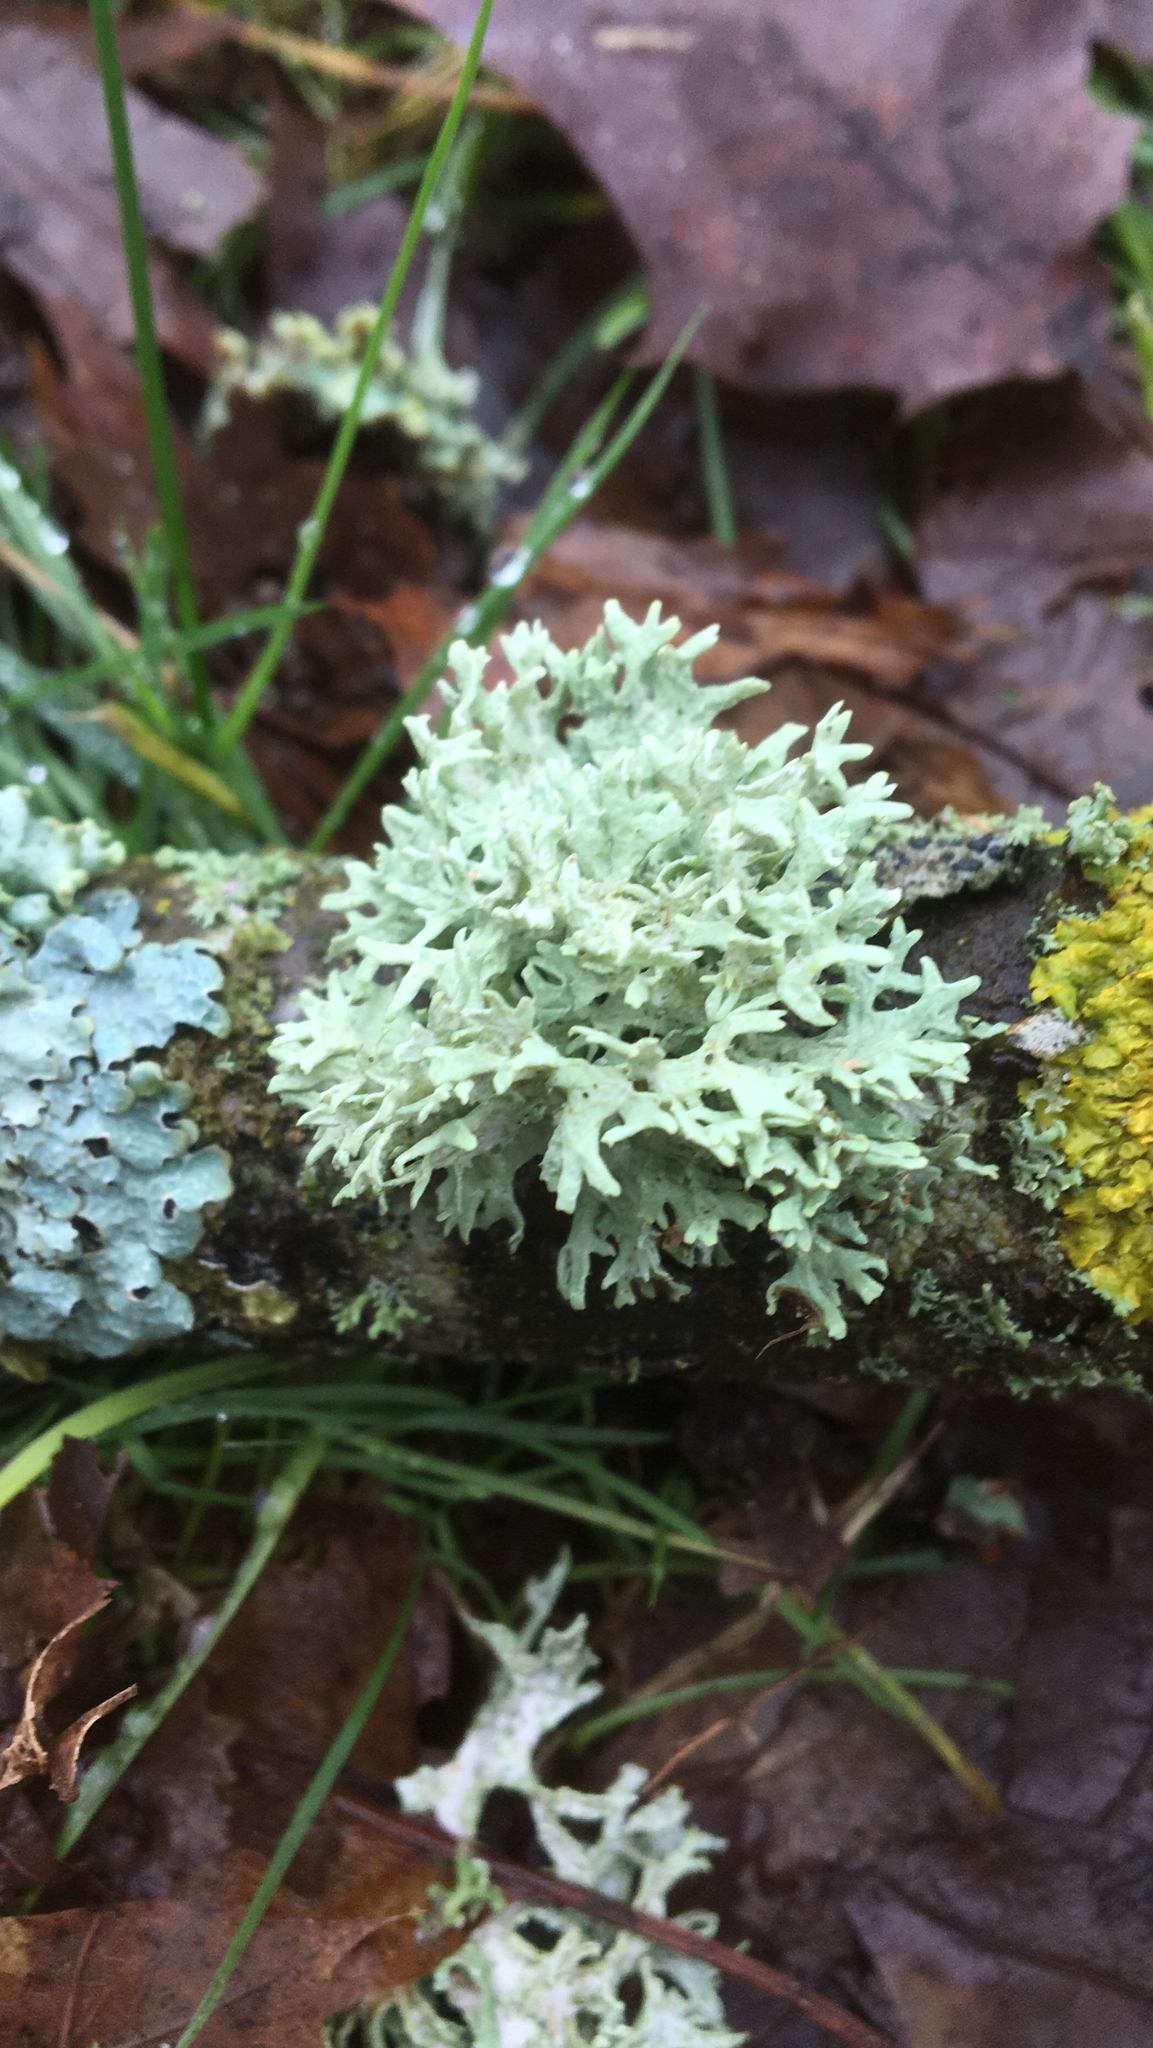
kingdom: Fungi
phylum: Ascomycota
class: Lecanoromycetes
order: Lecanorales
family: Parmeliaceae
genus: Evernia
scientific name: Evernia prunastri
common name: Oak moss
